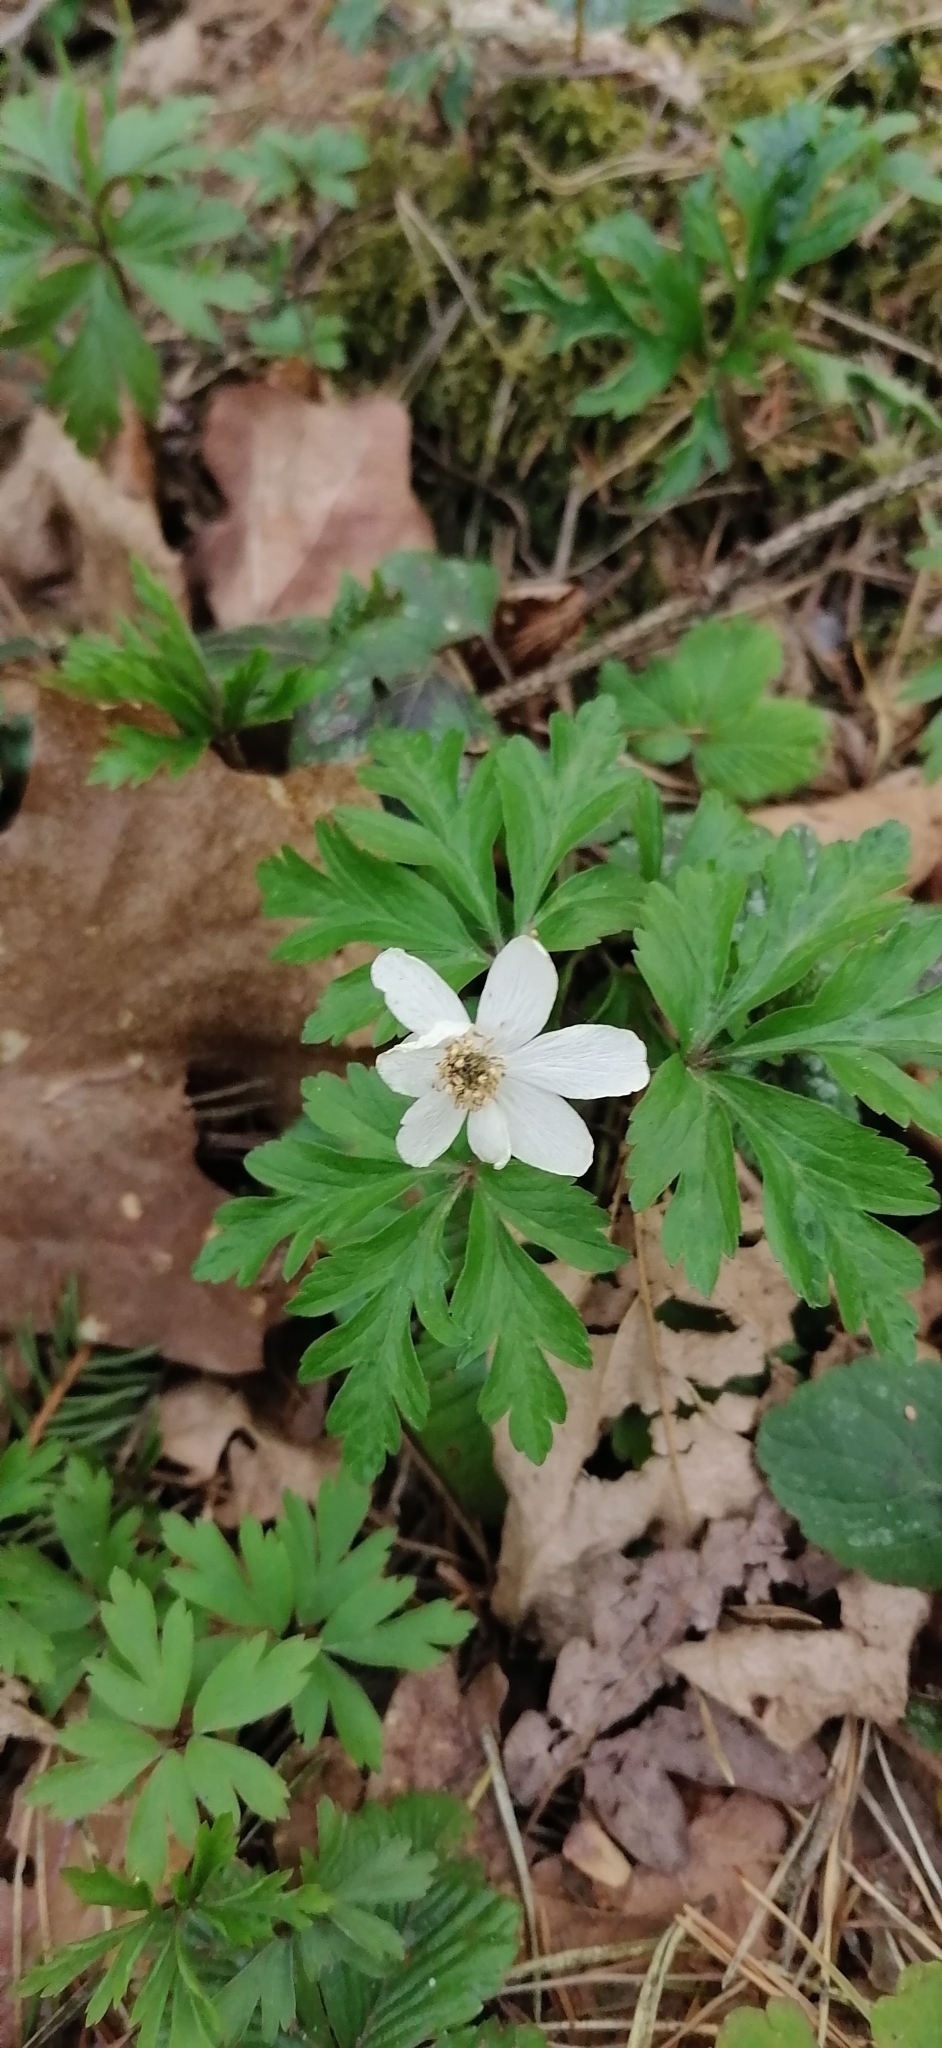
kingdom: Plantae
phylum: Tracheophyta
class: Magnoliopsida
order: Ranunculales
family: Ranunculaceae
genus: Anemone
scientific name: Anemone nemorosa
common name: Wood anemone
